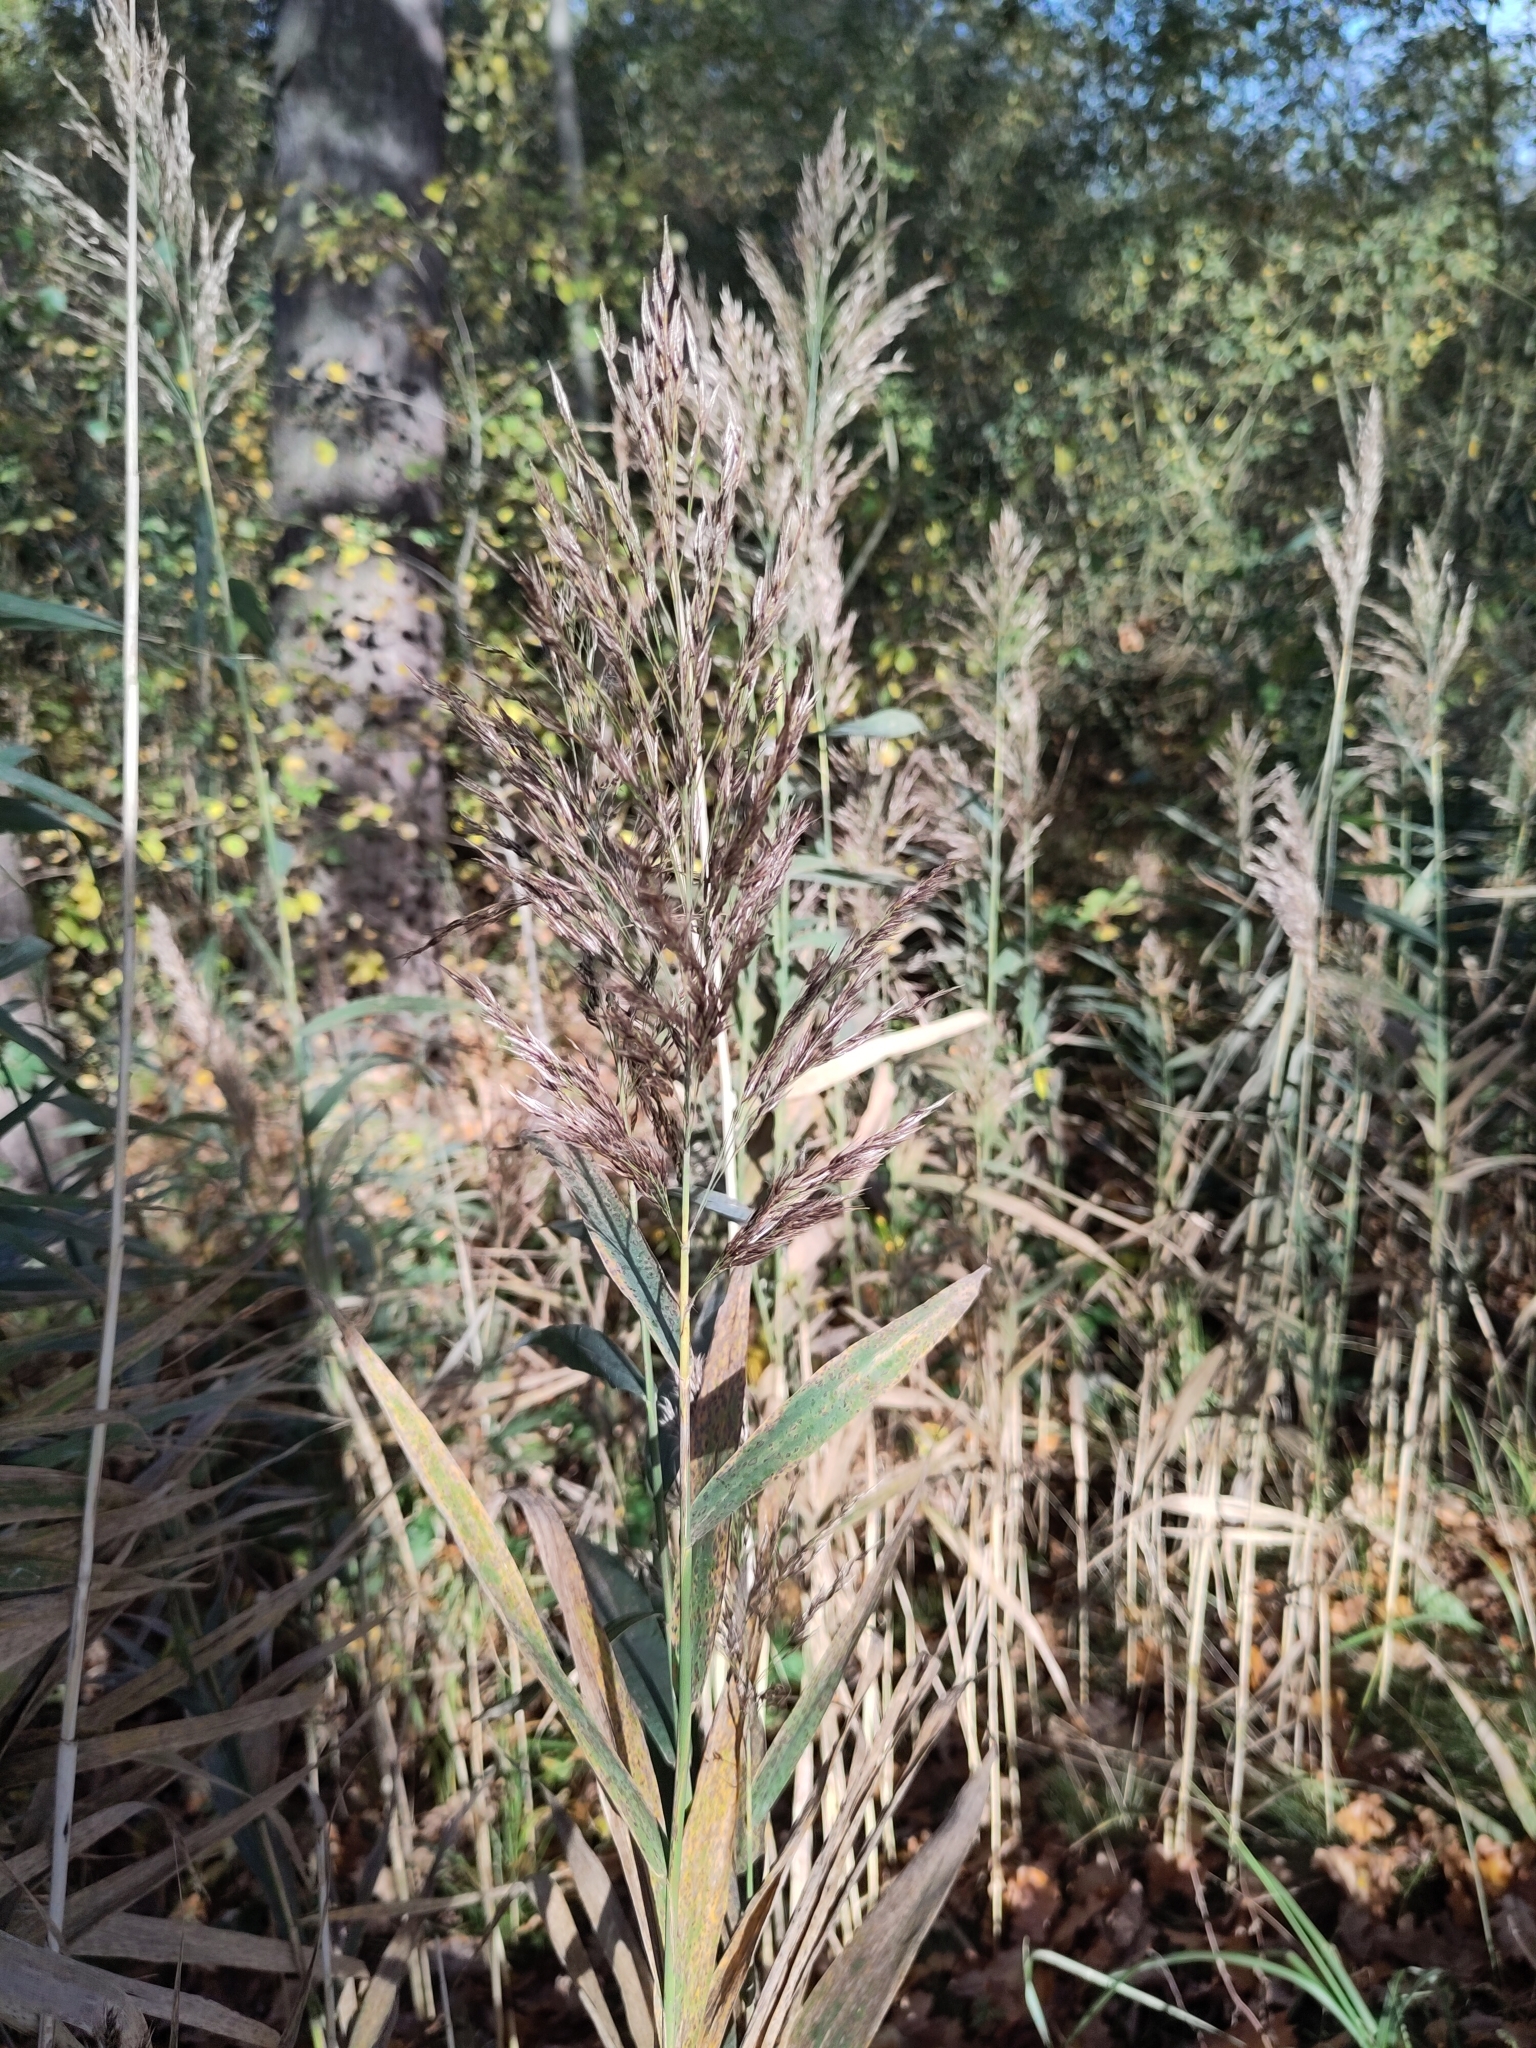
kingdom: Plantae
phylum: Tracheophyta
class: Liliopsida
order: Poales
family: Poaceae
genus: Phragmites
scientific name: Phragmites australis
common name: Common reed
